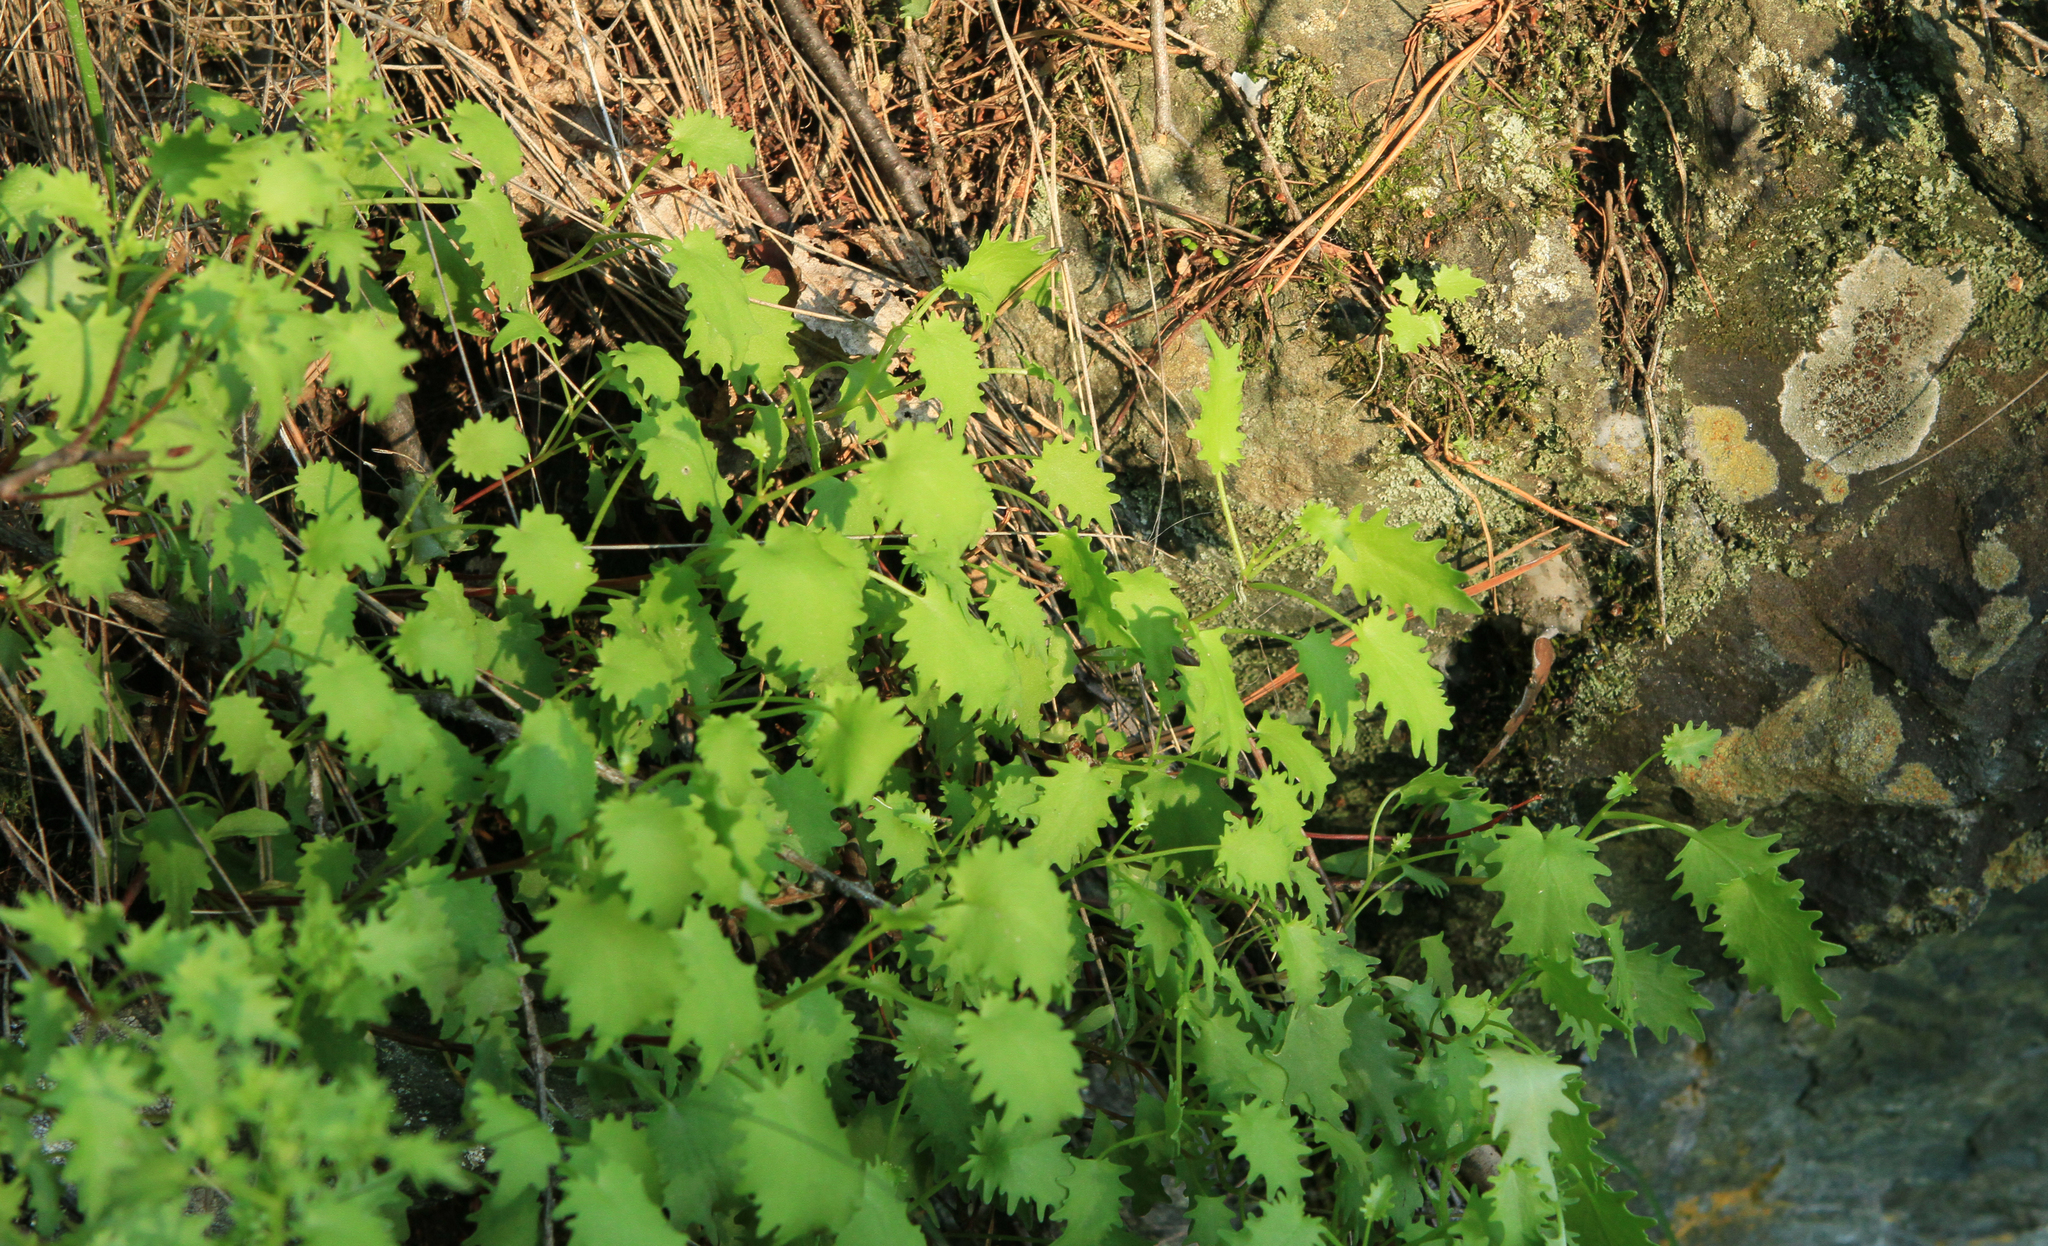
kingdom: Plantae
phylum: Tracheophyta
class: Magnoliopsida
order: Saxifragales
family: Crassulaceae
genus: Hylotelephium
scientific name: Hylotelephium populifolium
